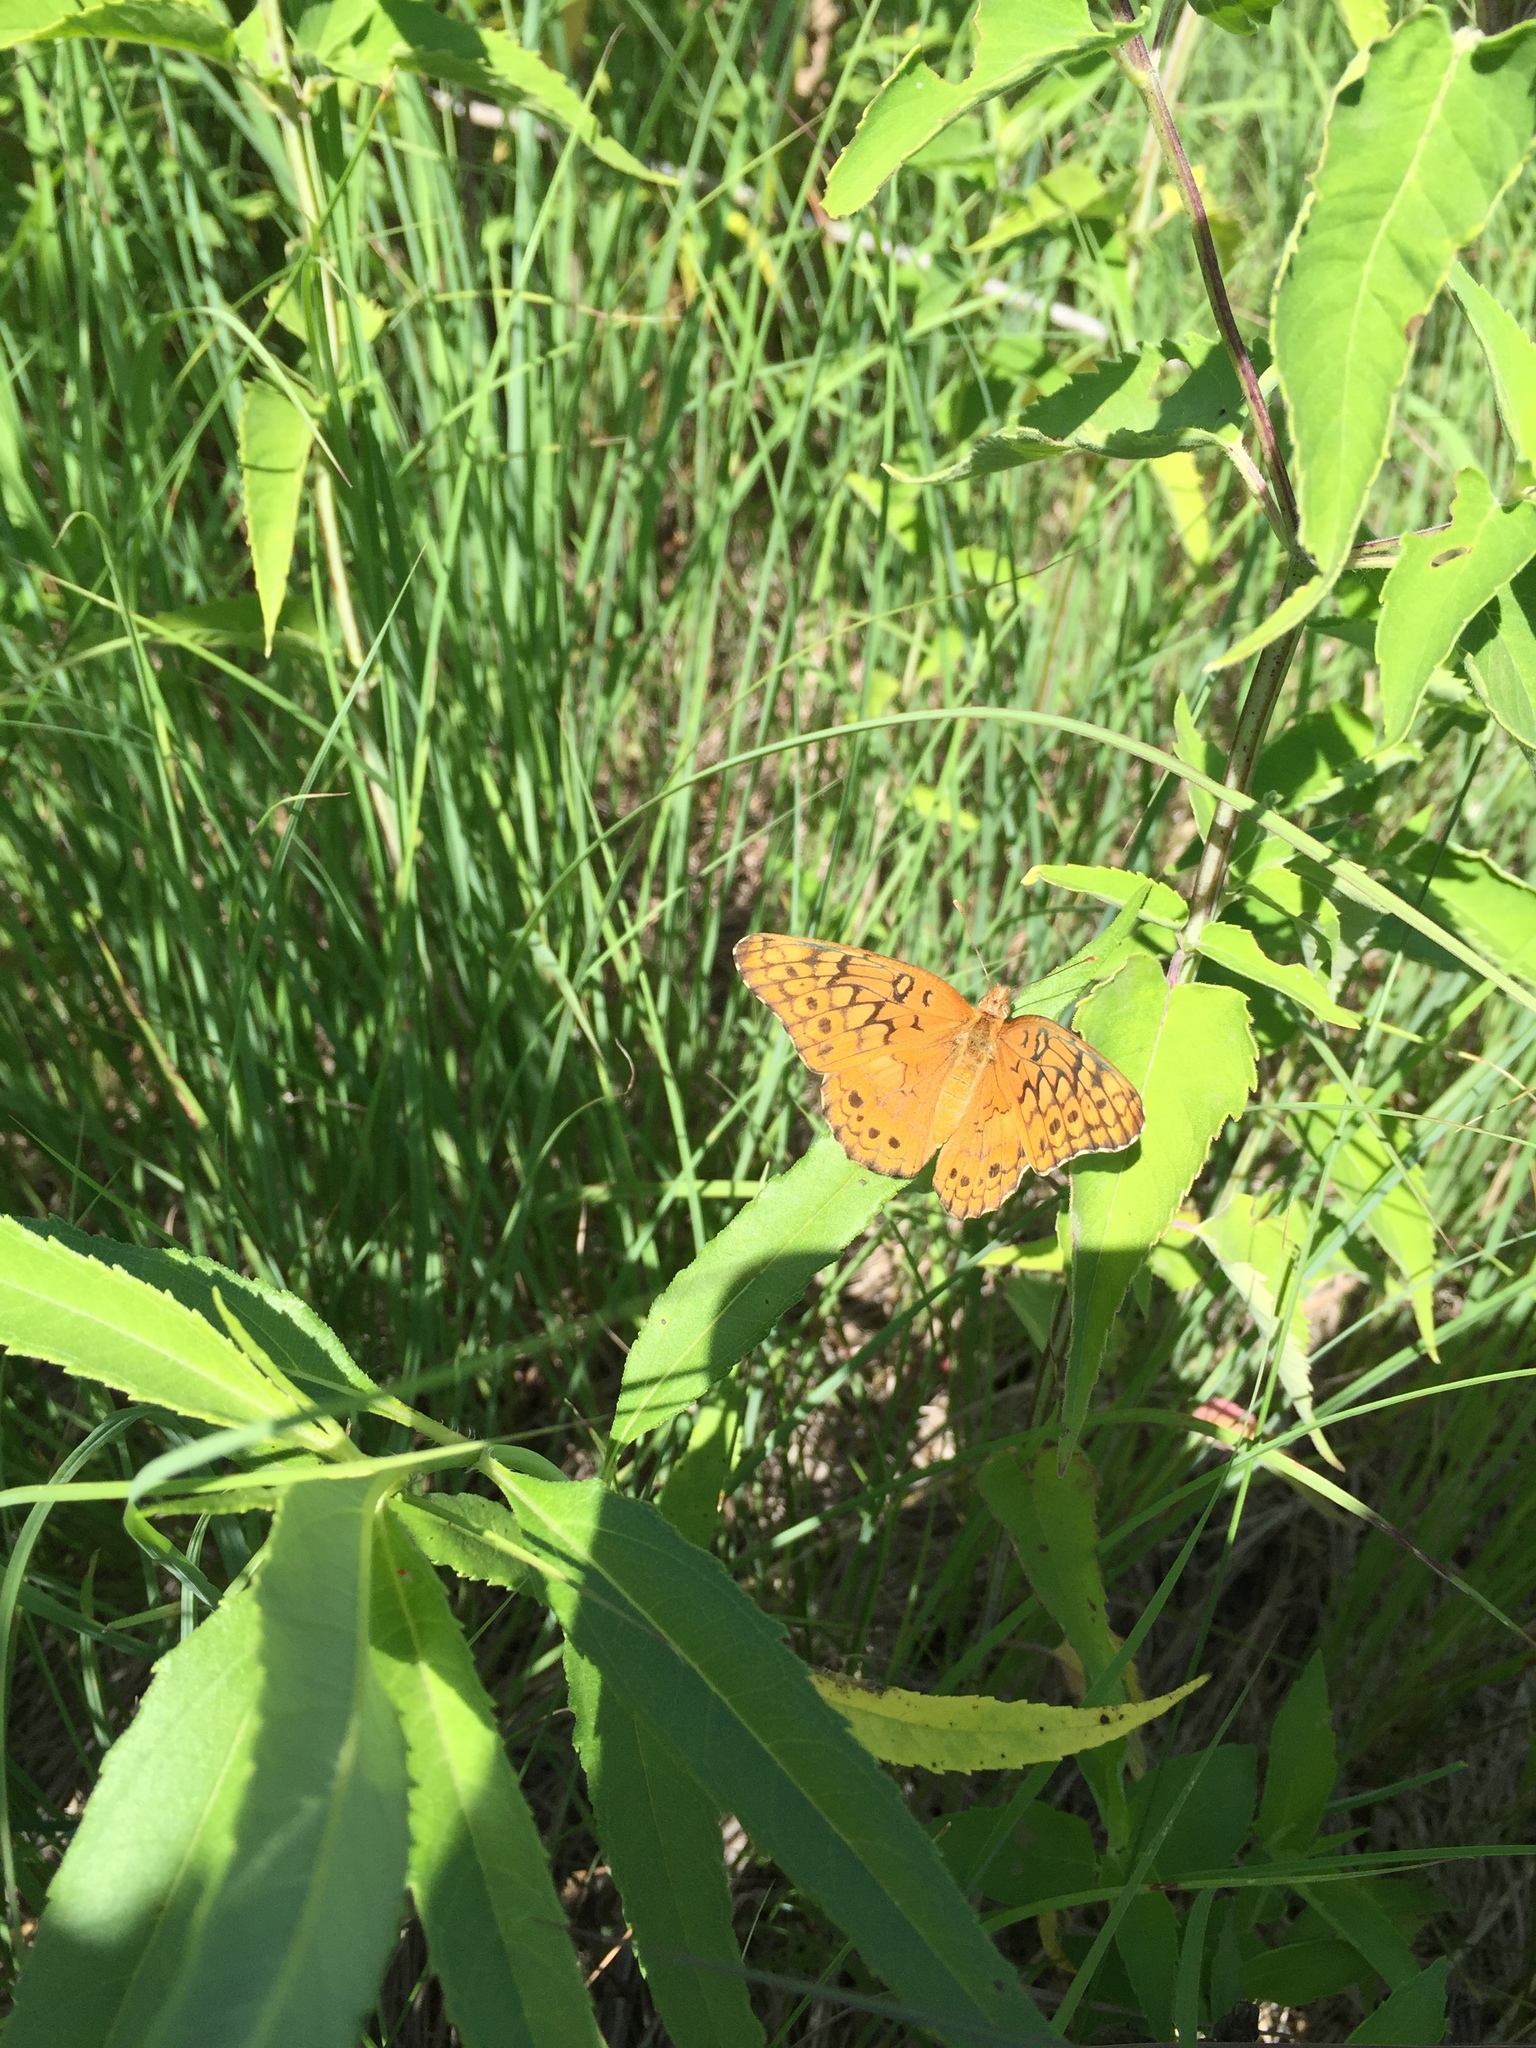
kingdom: Animalia
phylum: Arthropoda
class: Insecta
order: Lepidoptera
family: Nymphalidae
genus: Euptoieta
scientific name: Euptoieta claudia
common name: Variegated fritillary
